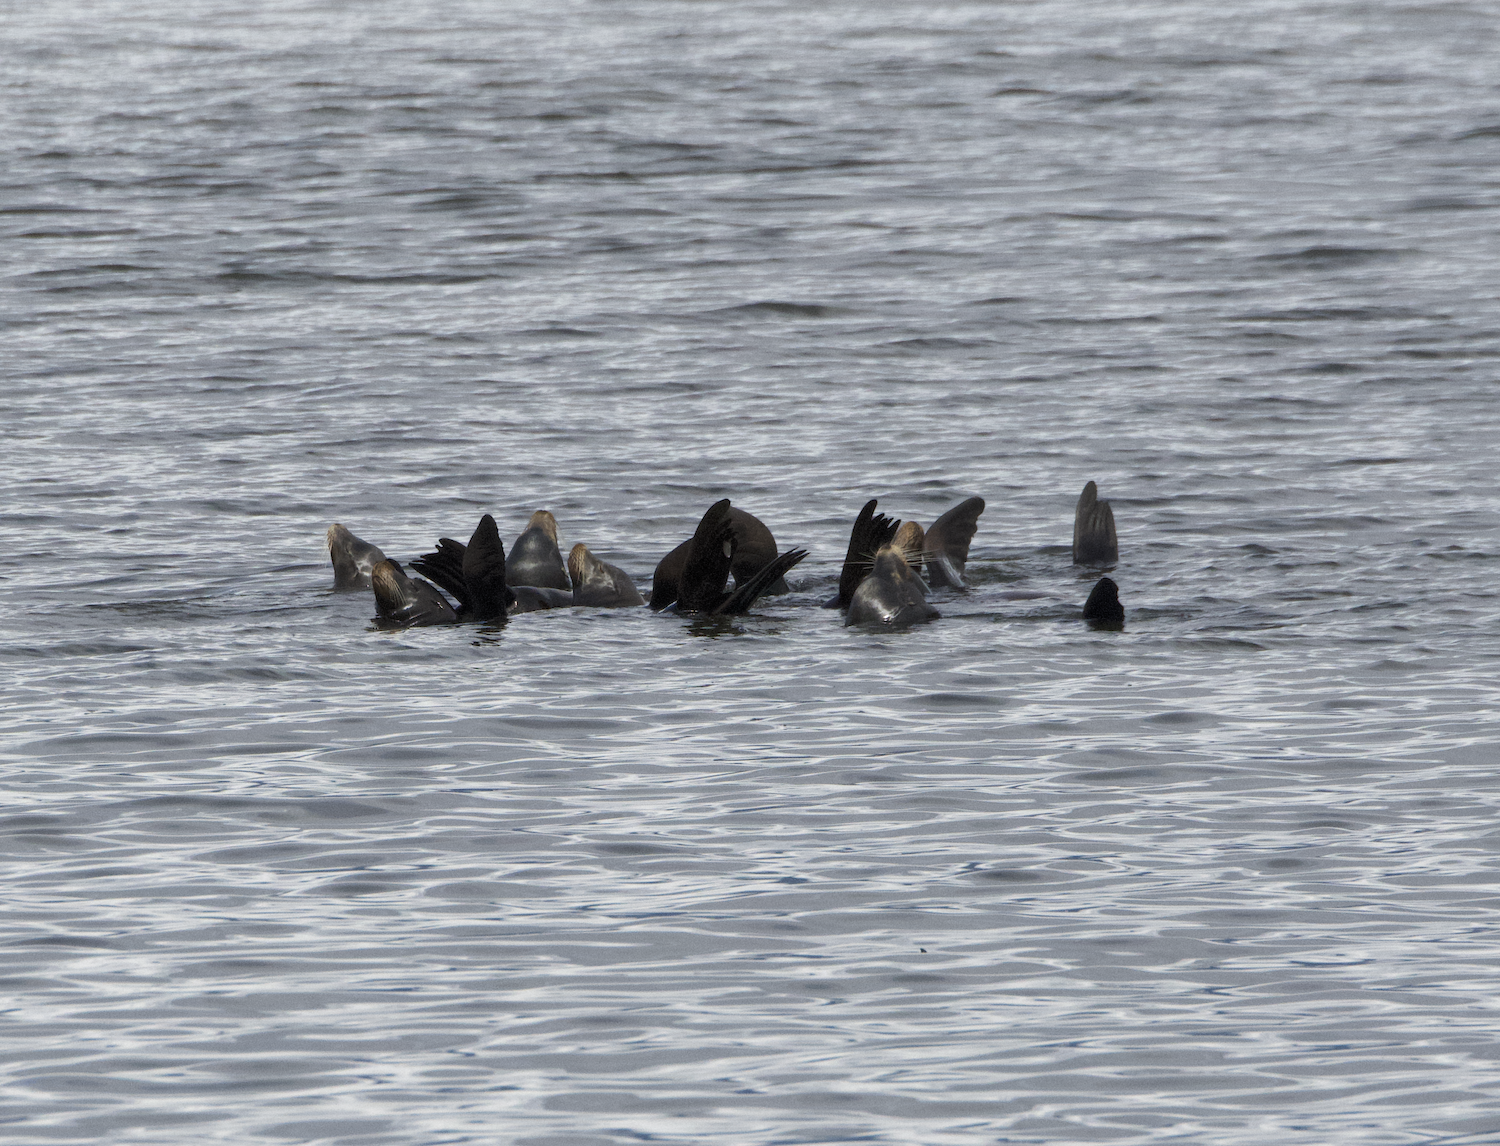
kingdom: Animalia
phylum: Chordata
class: Mammalia
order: Carnivora
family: Otariidae
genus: Zalophus
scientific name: Zalophus californianus
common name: California sea lion
